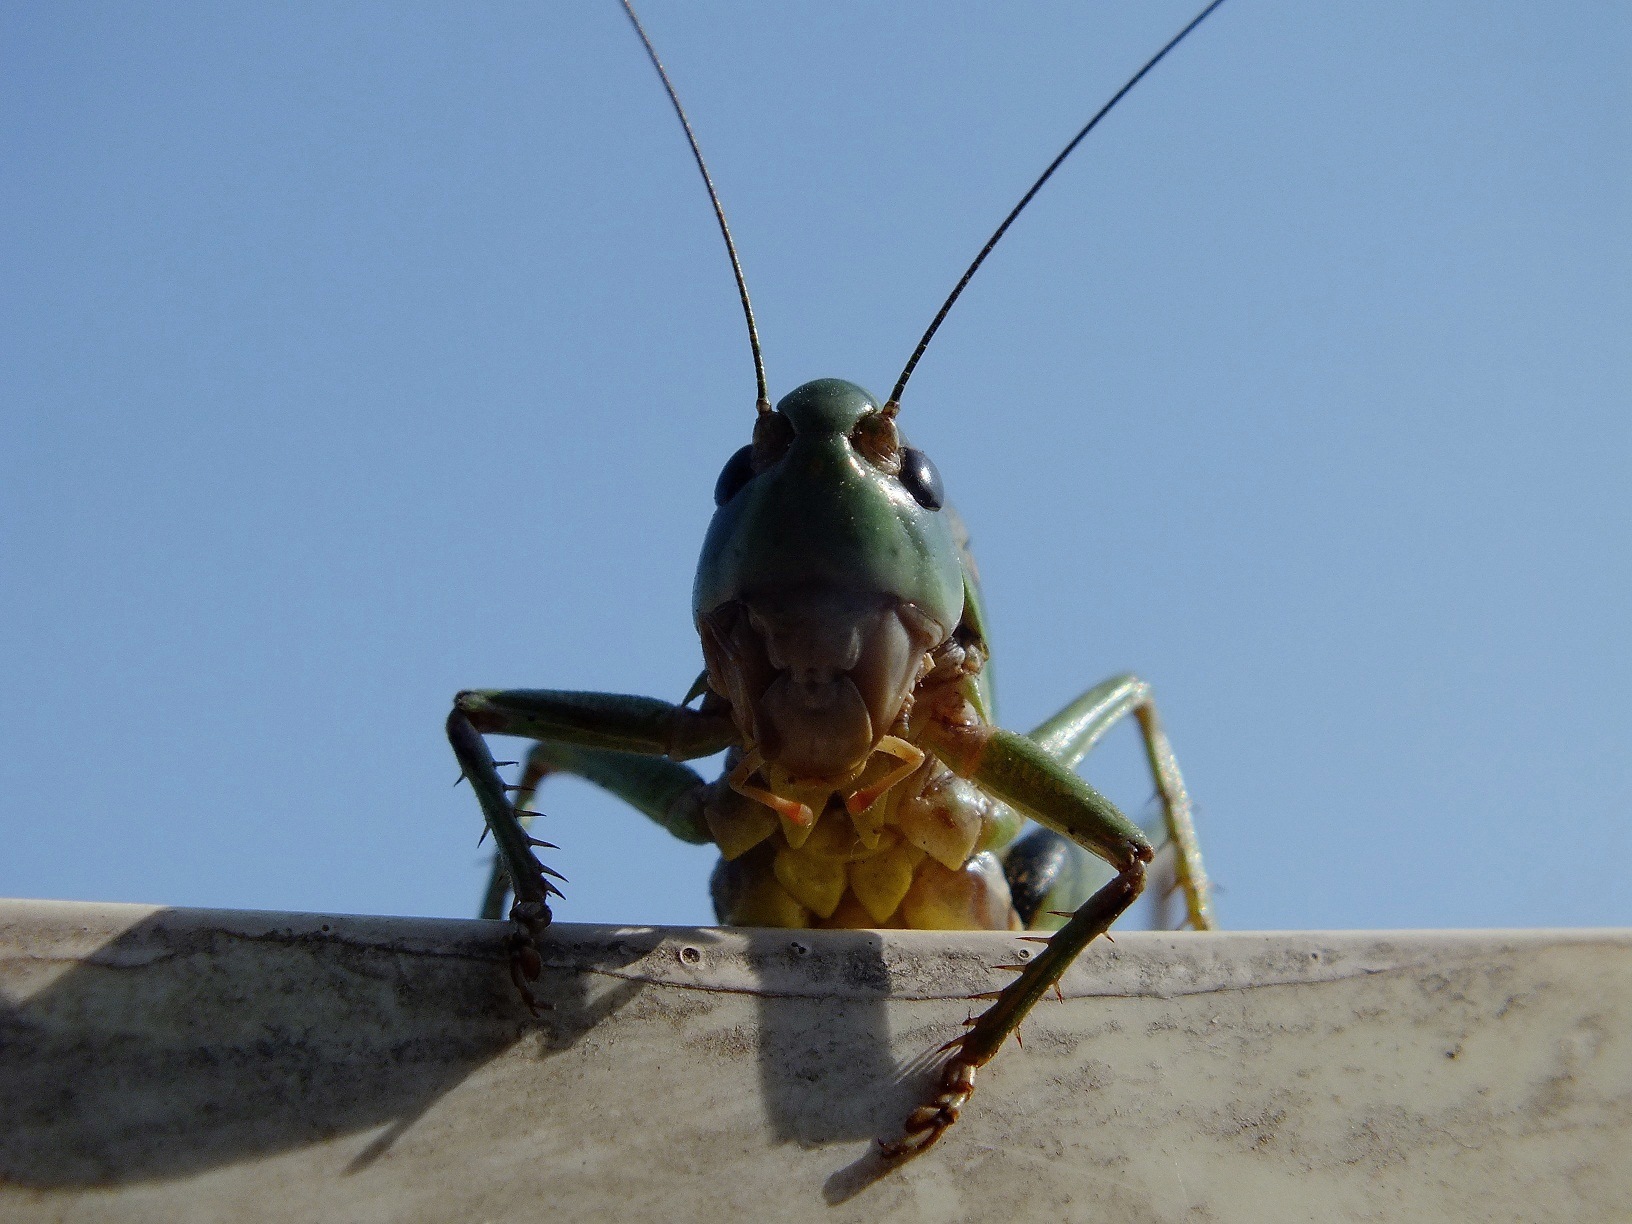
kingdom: Animalia
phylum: Arthropoda
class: Insecta
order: Orthoptera
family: Tettigoniidae
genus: Decticus
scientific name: Decticus verrucivorus
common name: Wart-biter
